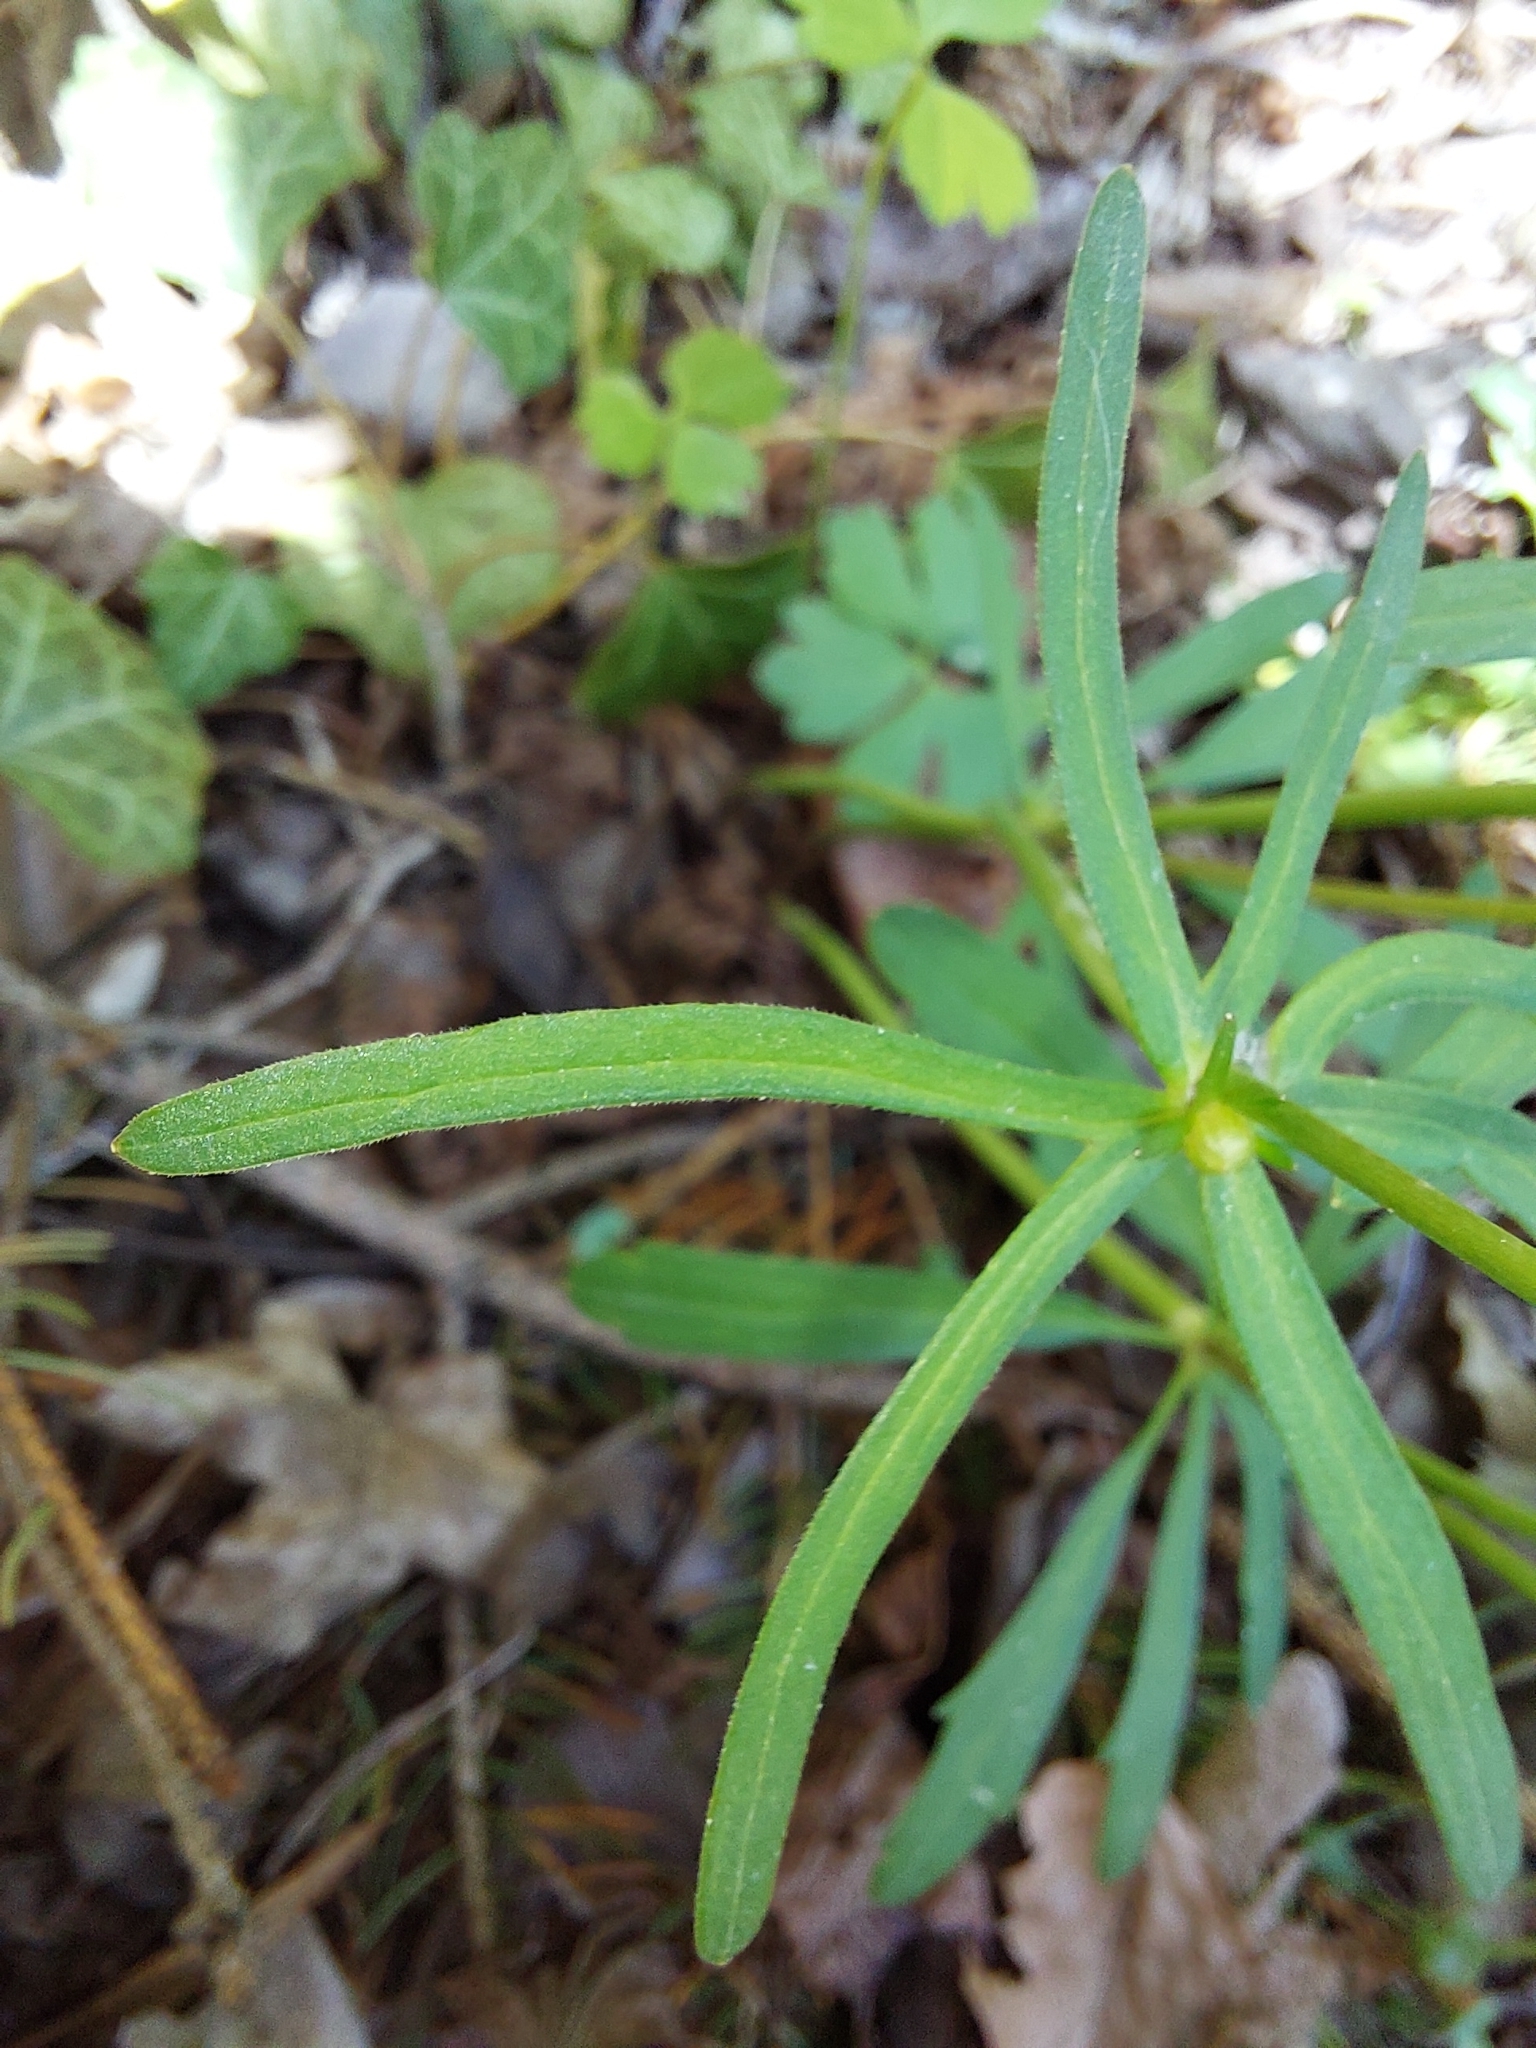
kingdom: Plantae
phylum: Tracheophyta
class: Magnoliopsida
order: Ranunculales
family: Ranunculaceae
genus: Ranunculus
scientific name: Ranunculus auricomus
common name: Goldilocks buttercup
